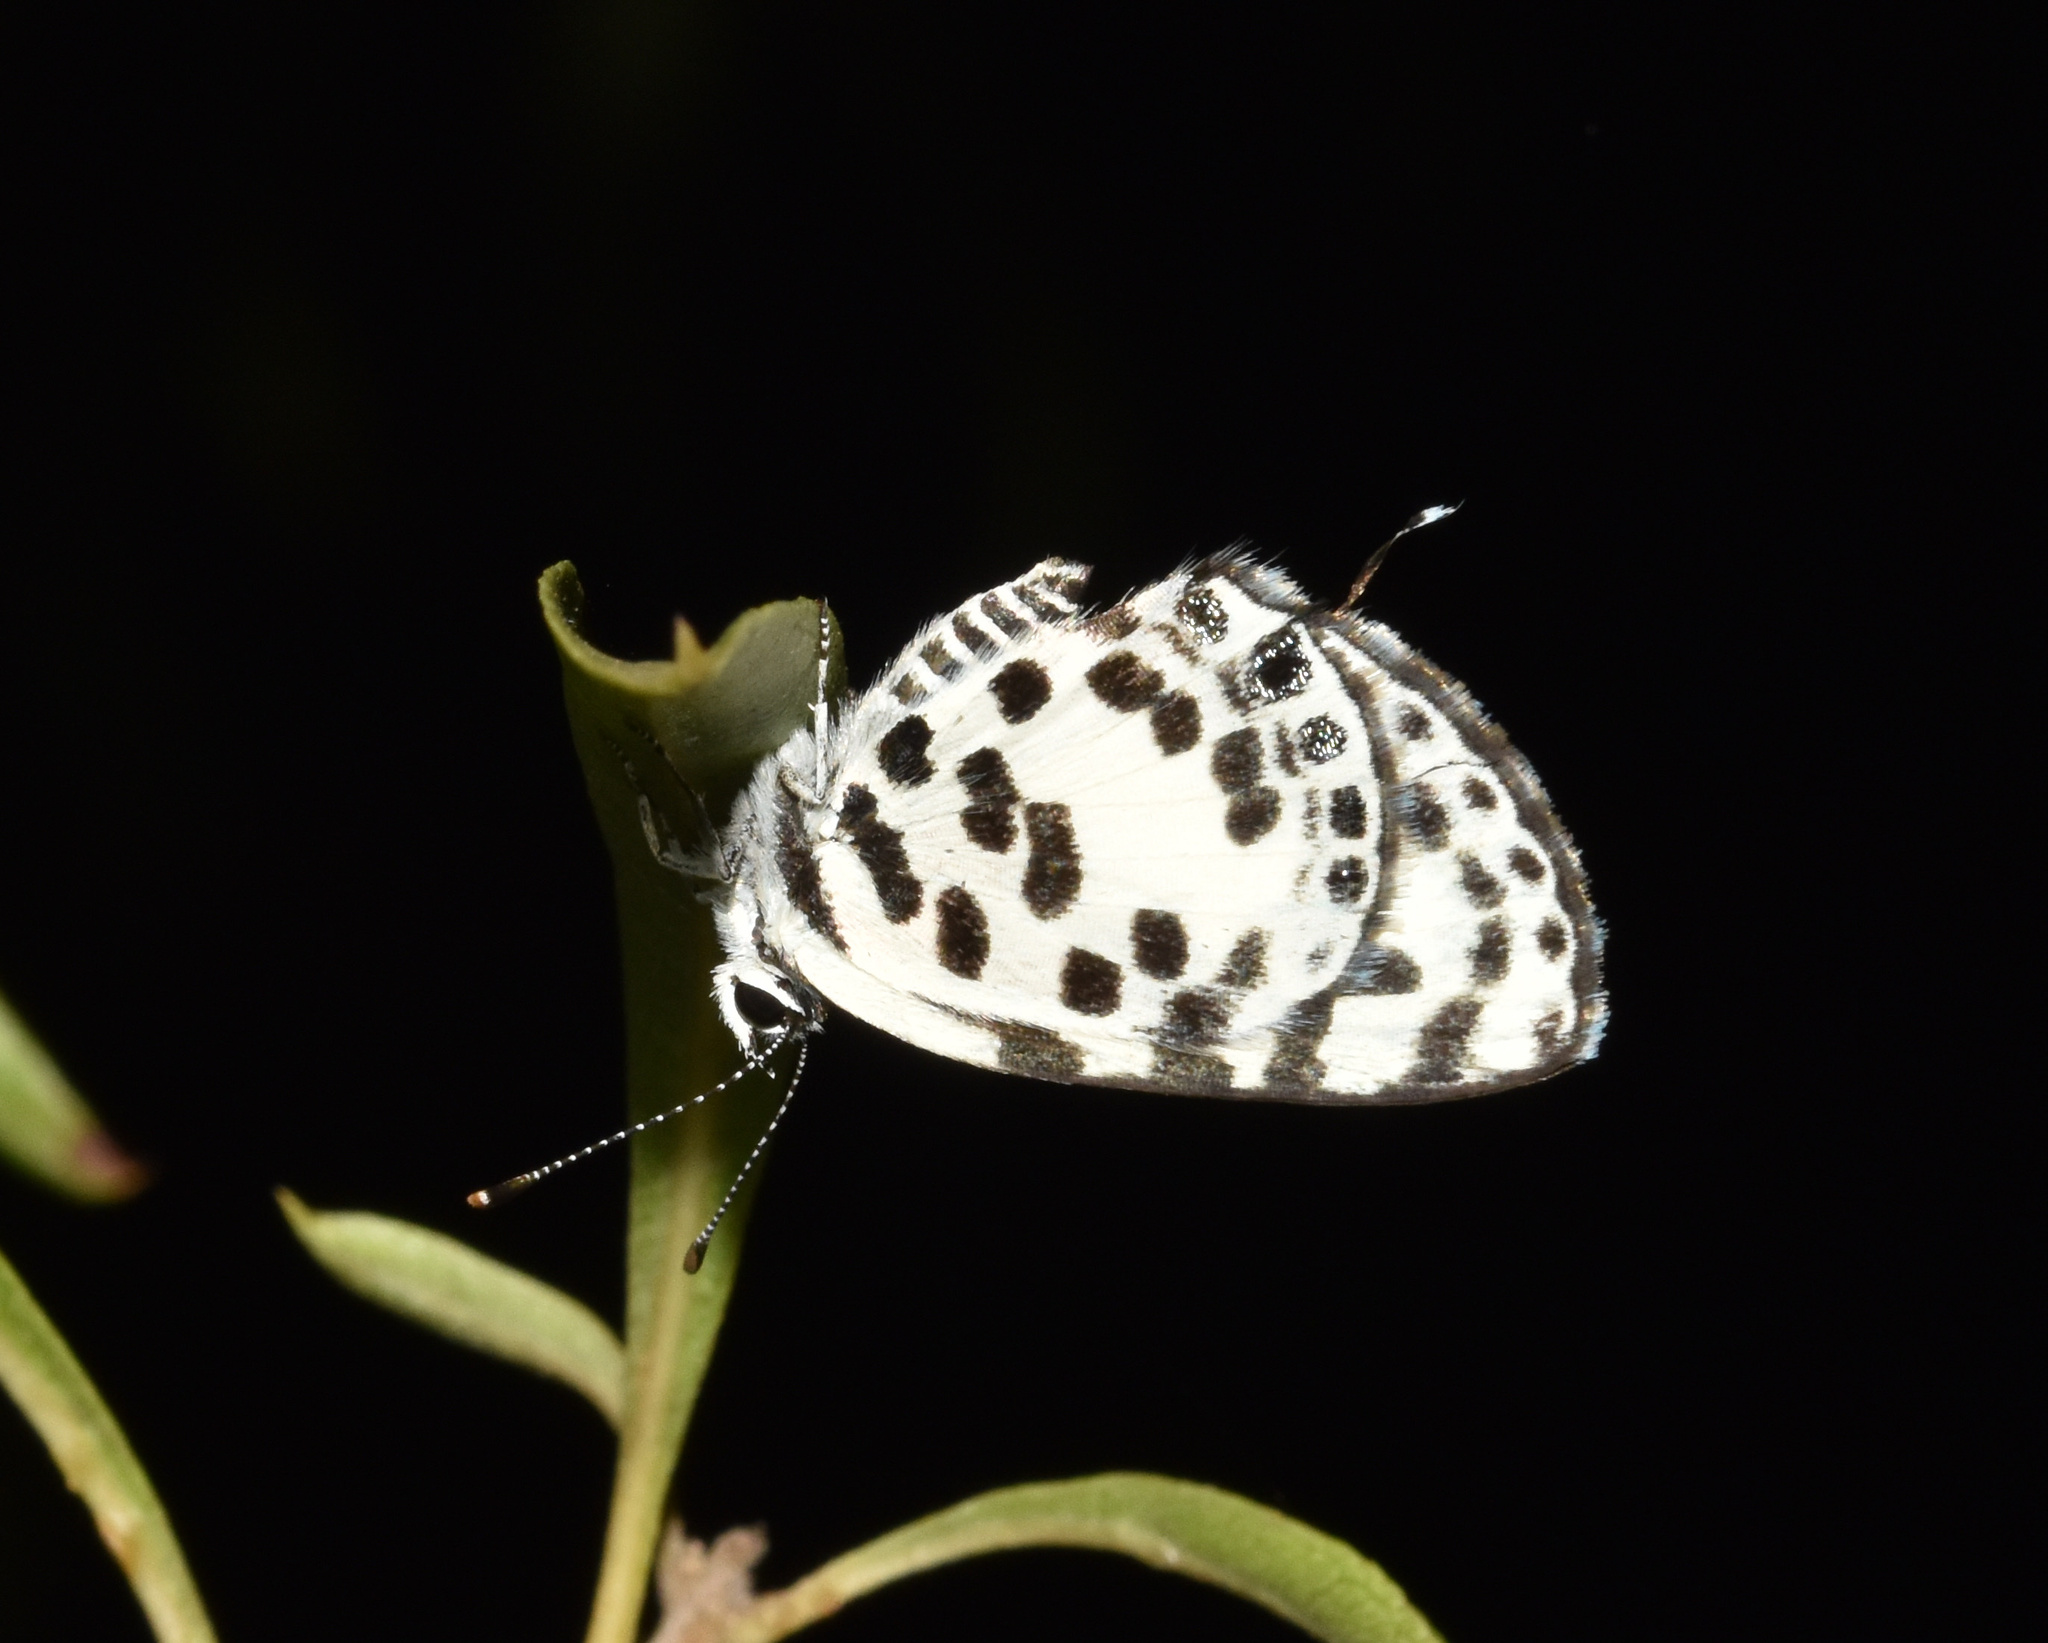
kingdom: Animalia
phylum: Arthropoda
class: Insecta
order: Lepidoptera
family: Lycaenidae
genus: Castalius
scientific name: Castalius calice
